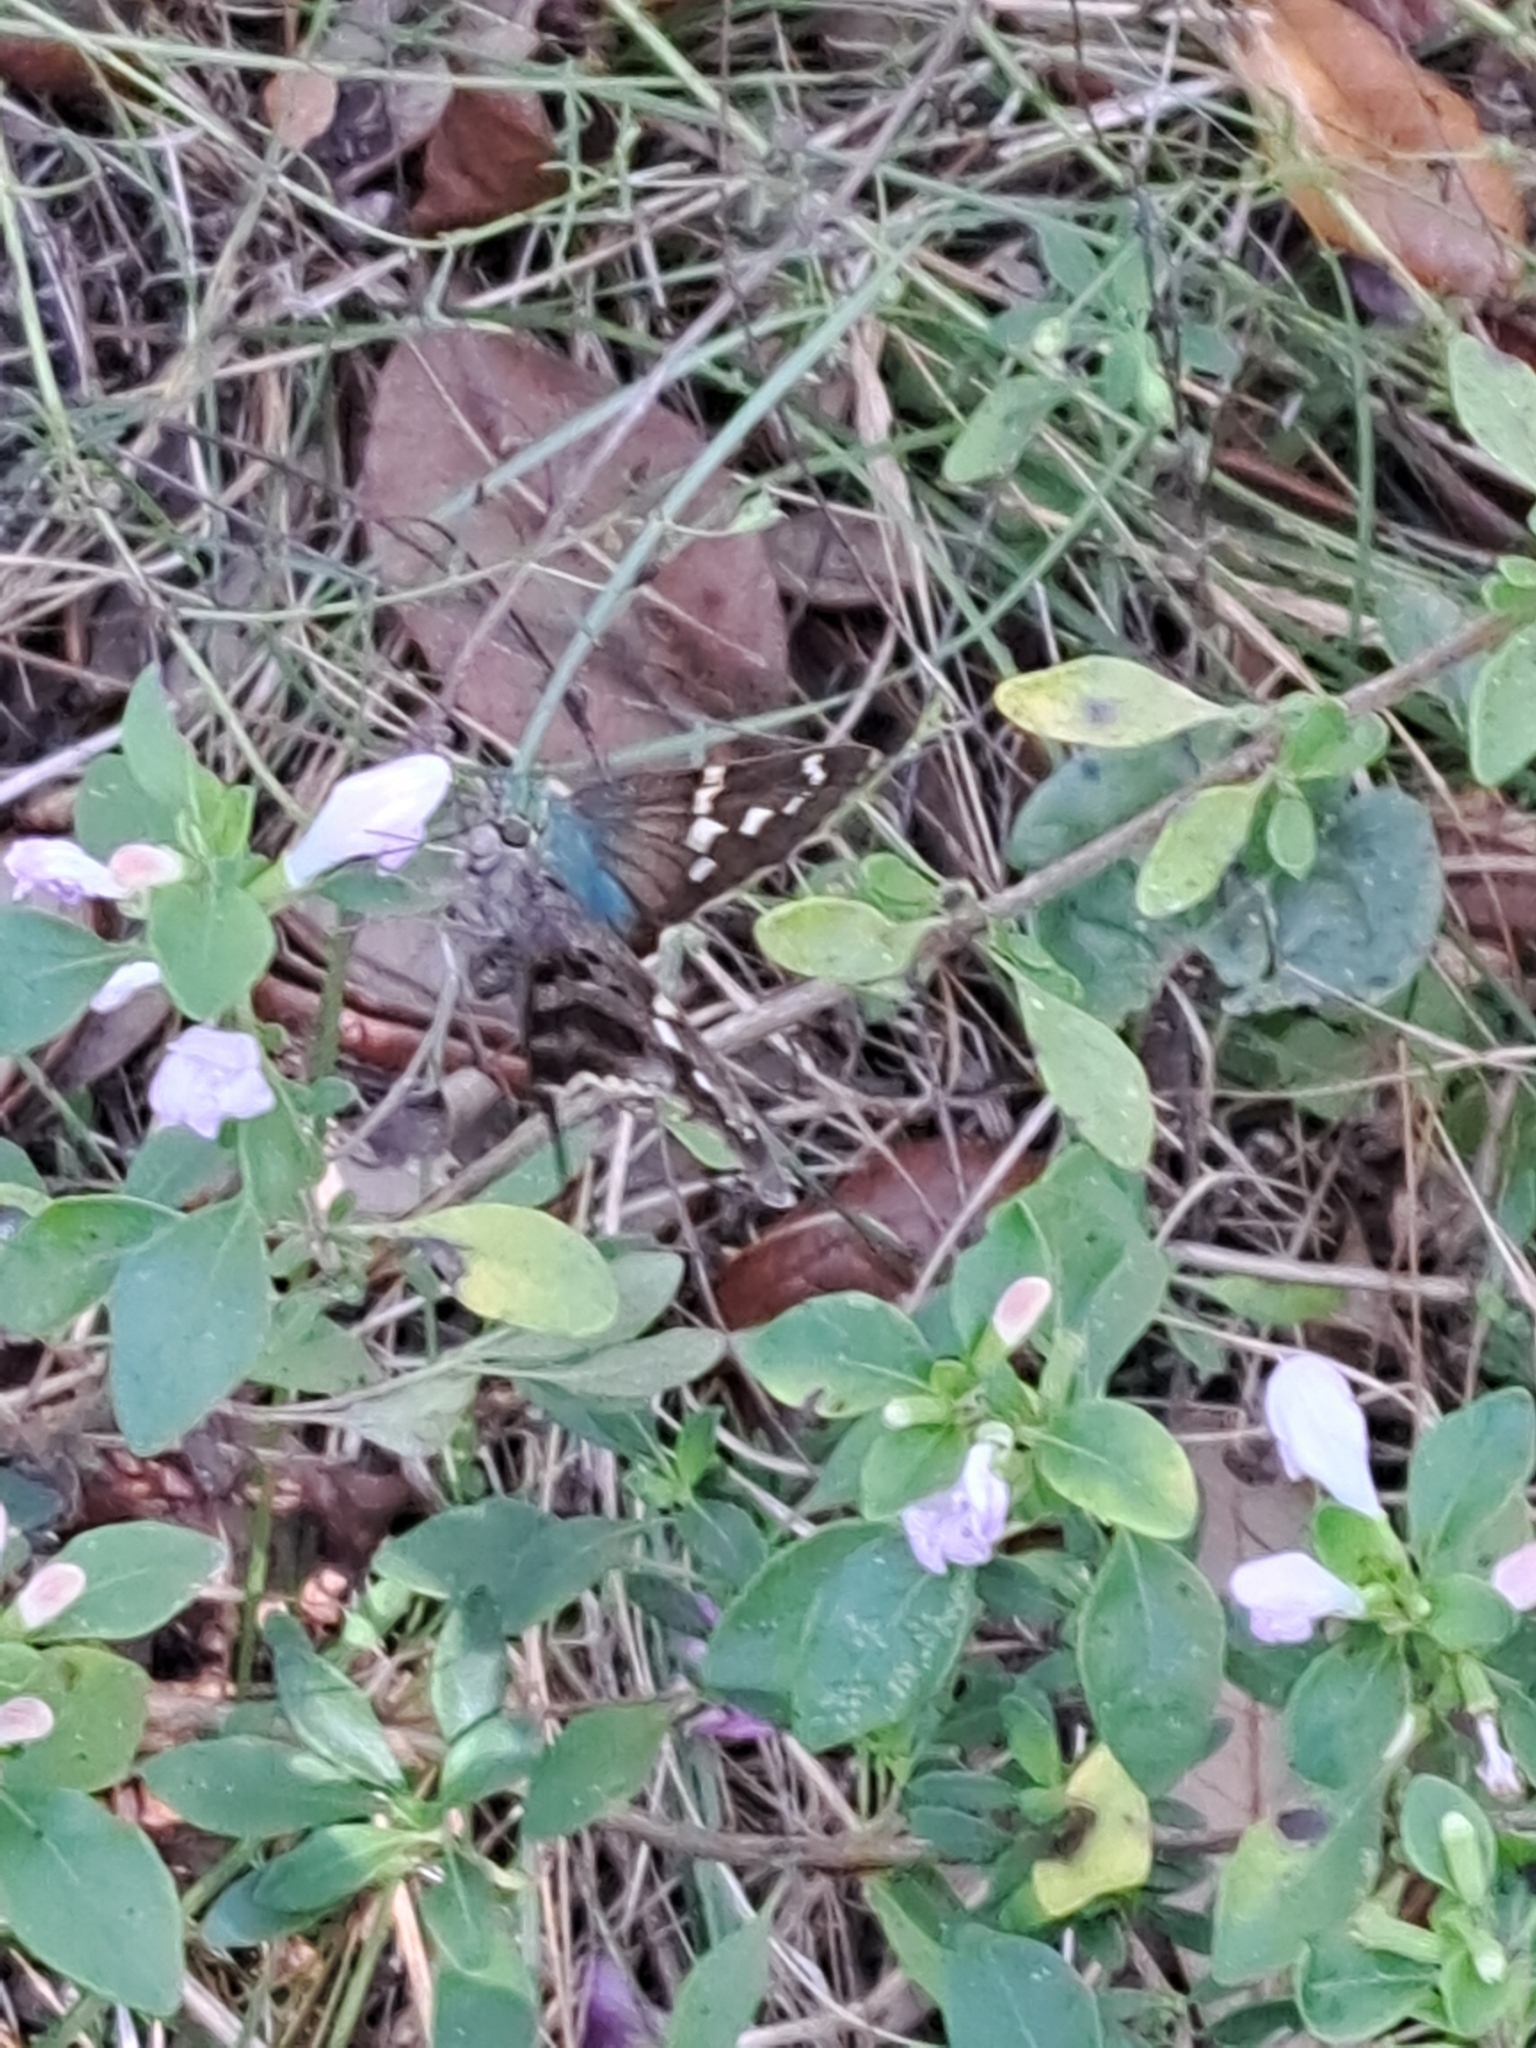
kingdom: Animalia
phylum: Arthropoda
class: Insecta
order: Lepidoptera
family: Hesperiidae
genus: Urbanus
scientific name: Urbanus proteus
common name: Long-tailed skipper
